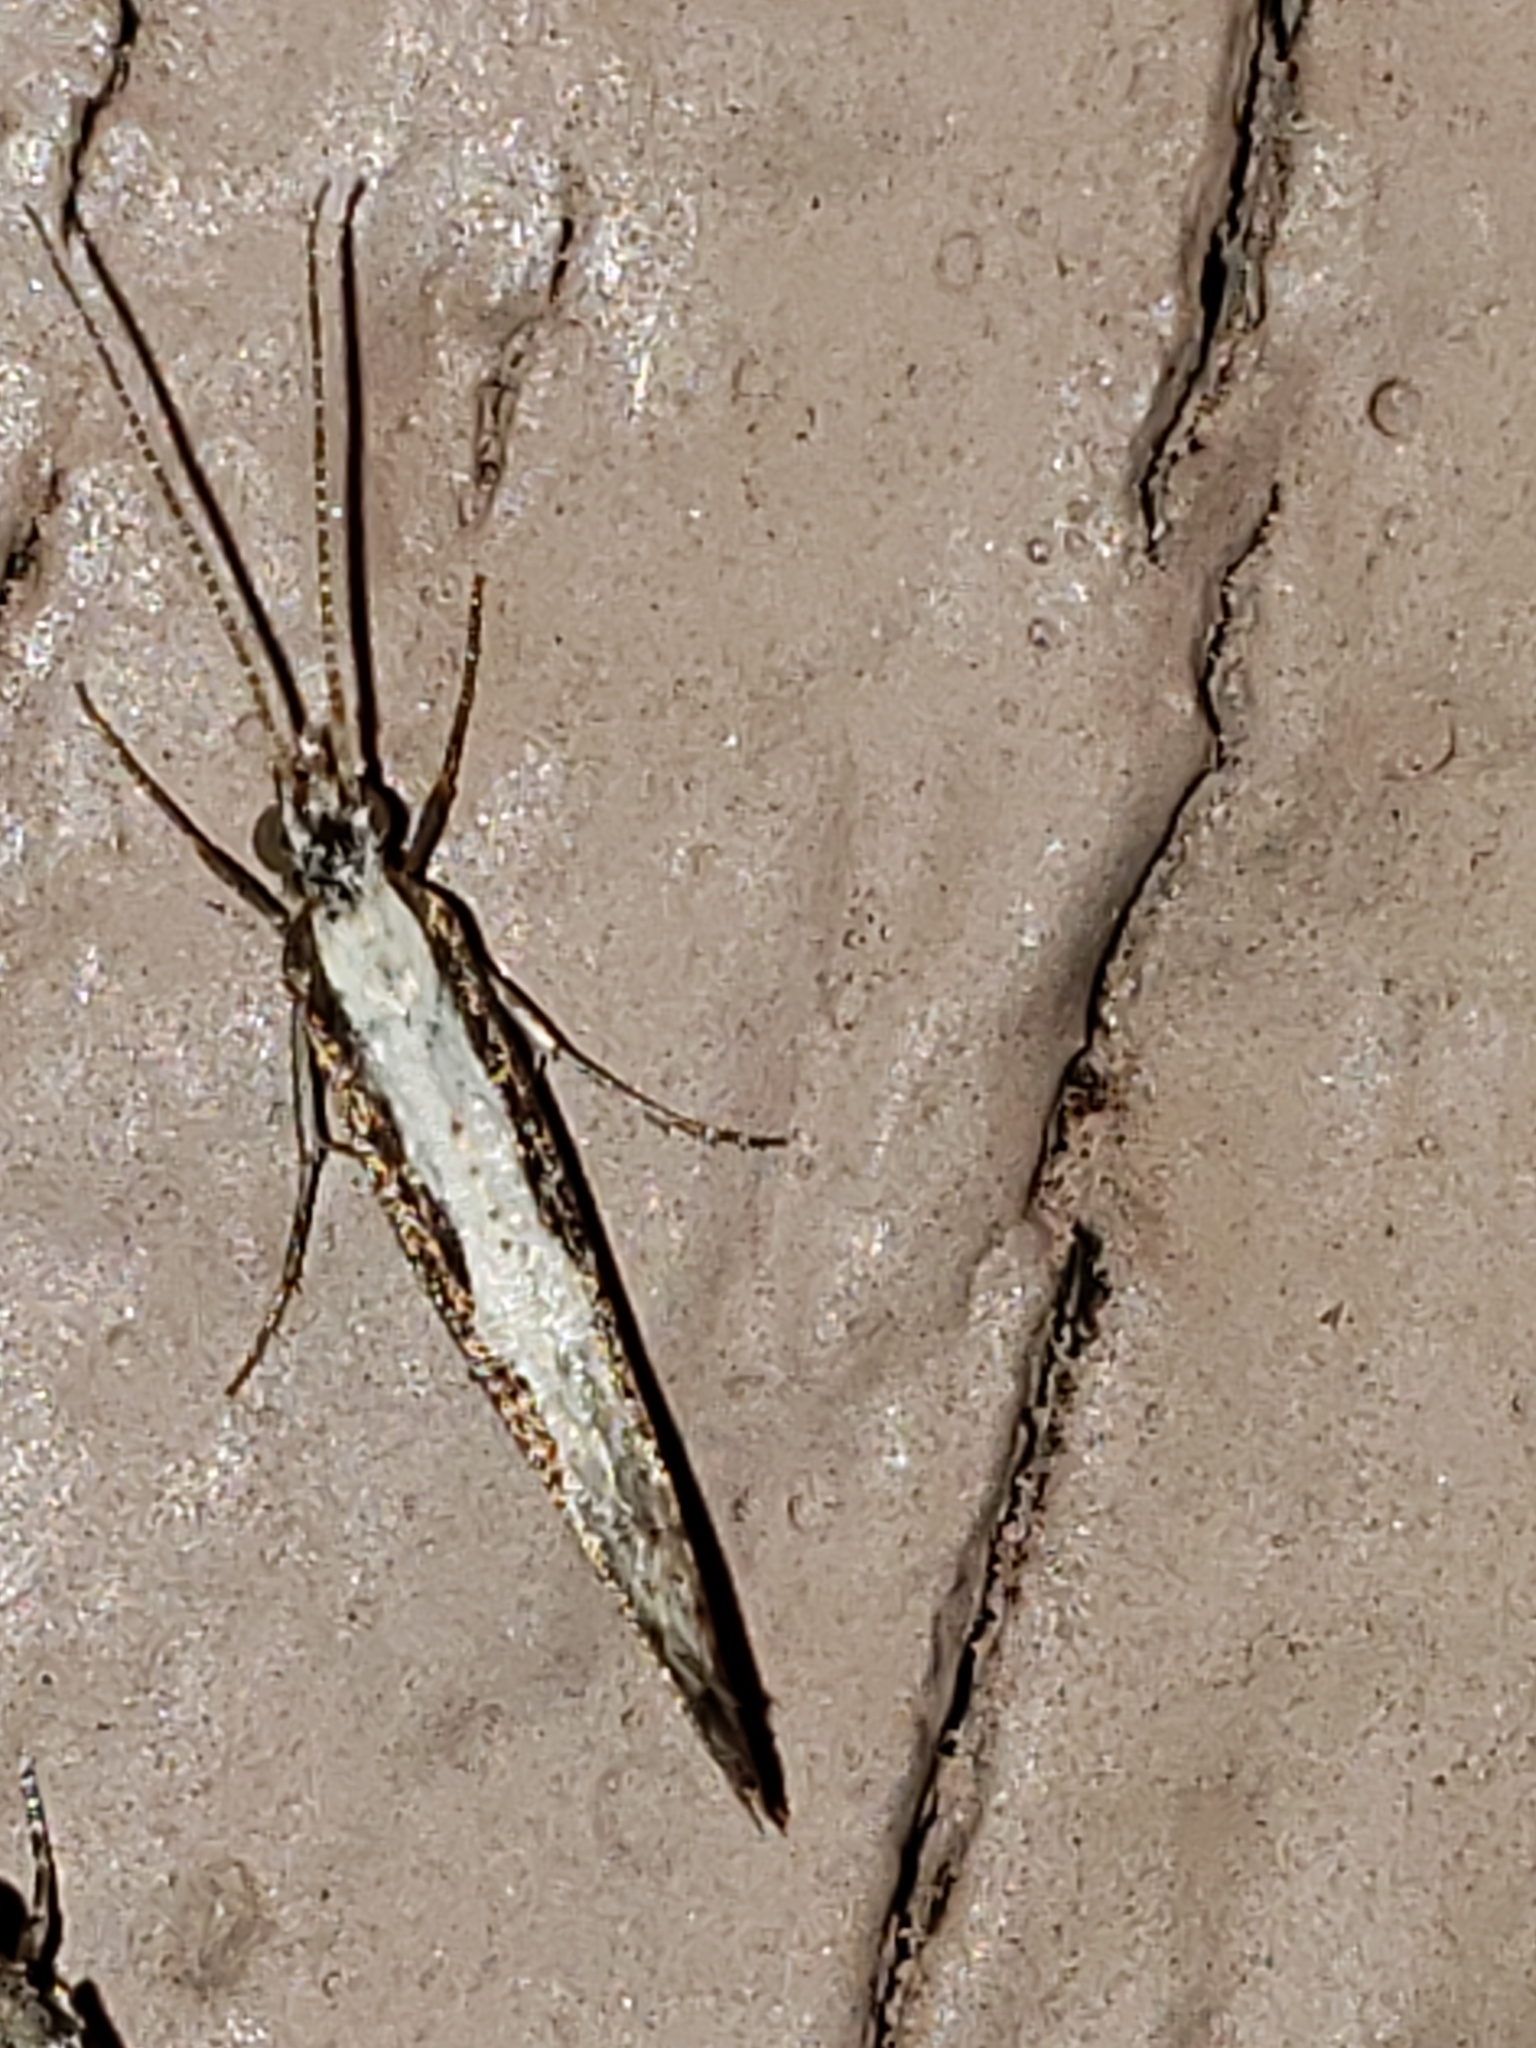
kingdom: Animalia
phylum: Arthropoda
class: Insecta
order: Lepidoptera
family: Plutellidae
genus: Plutella
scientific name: Plutella xylostella
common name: Diamond-back moth
